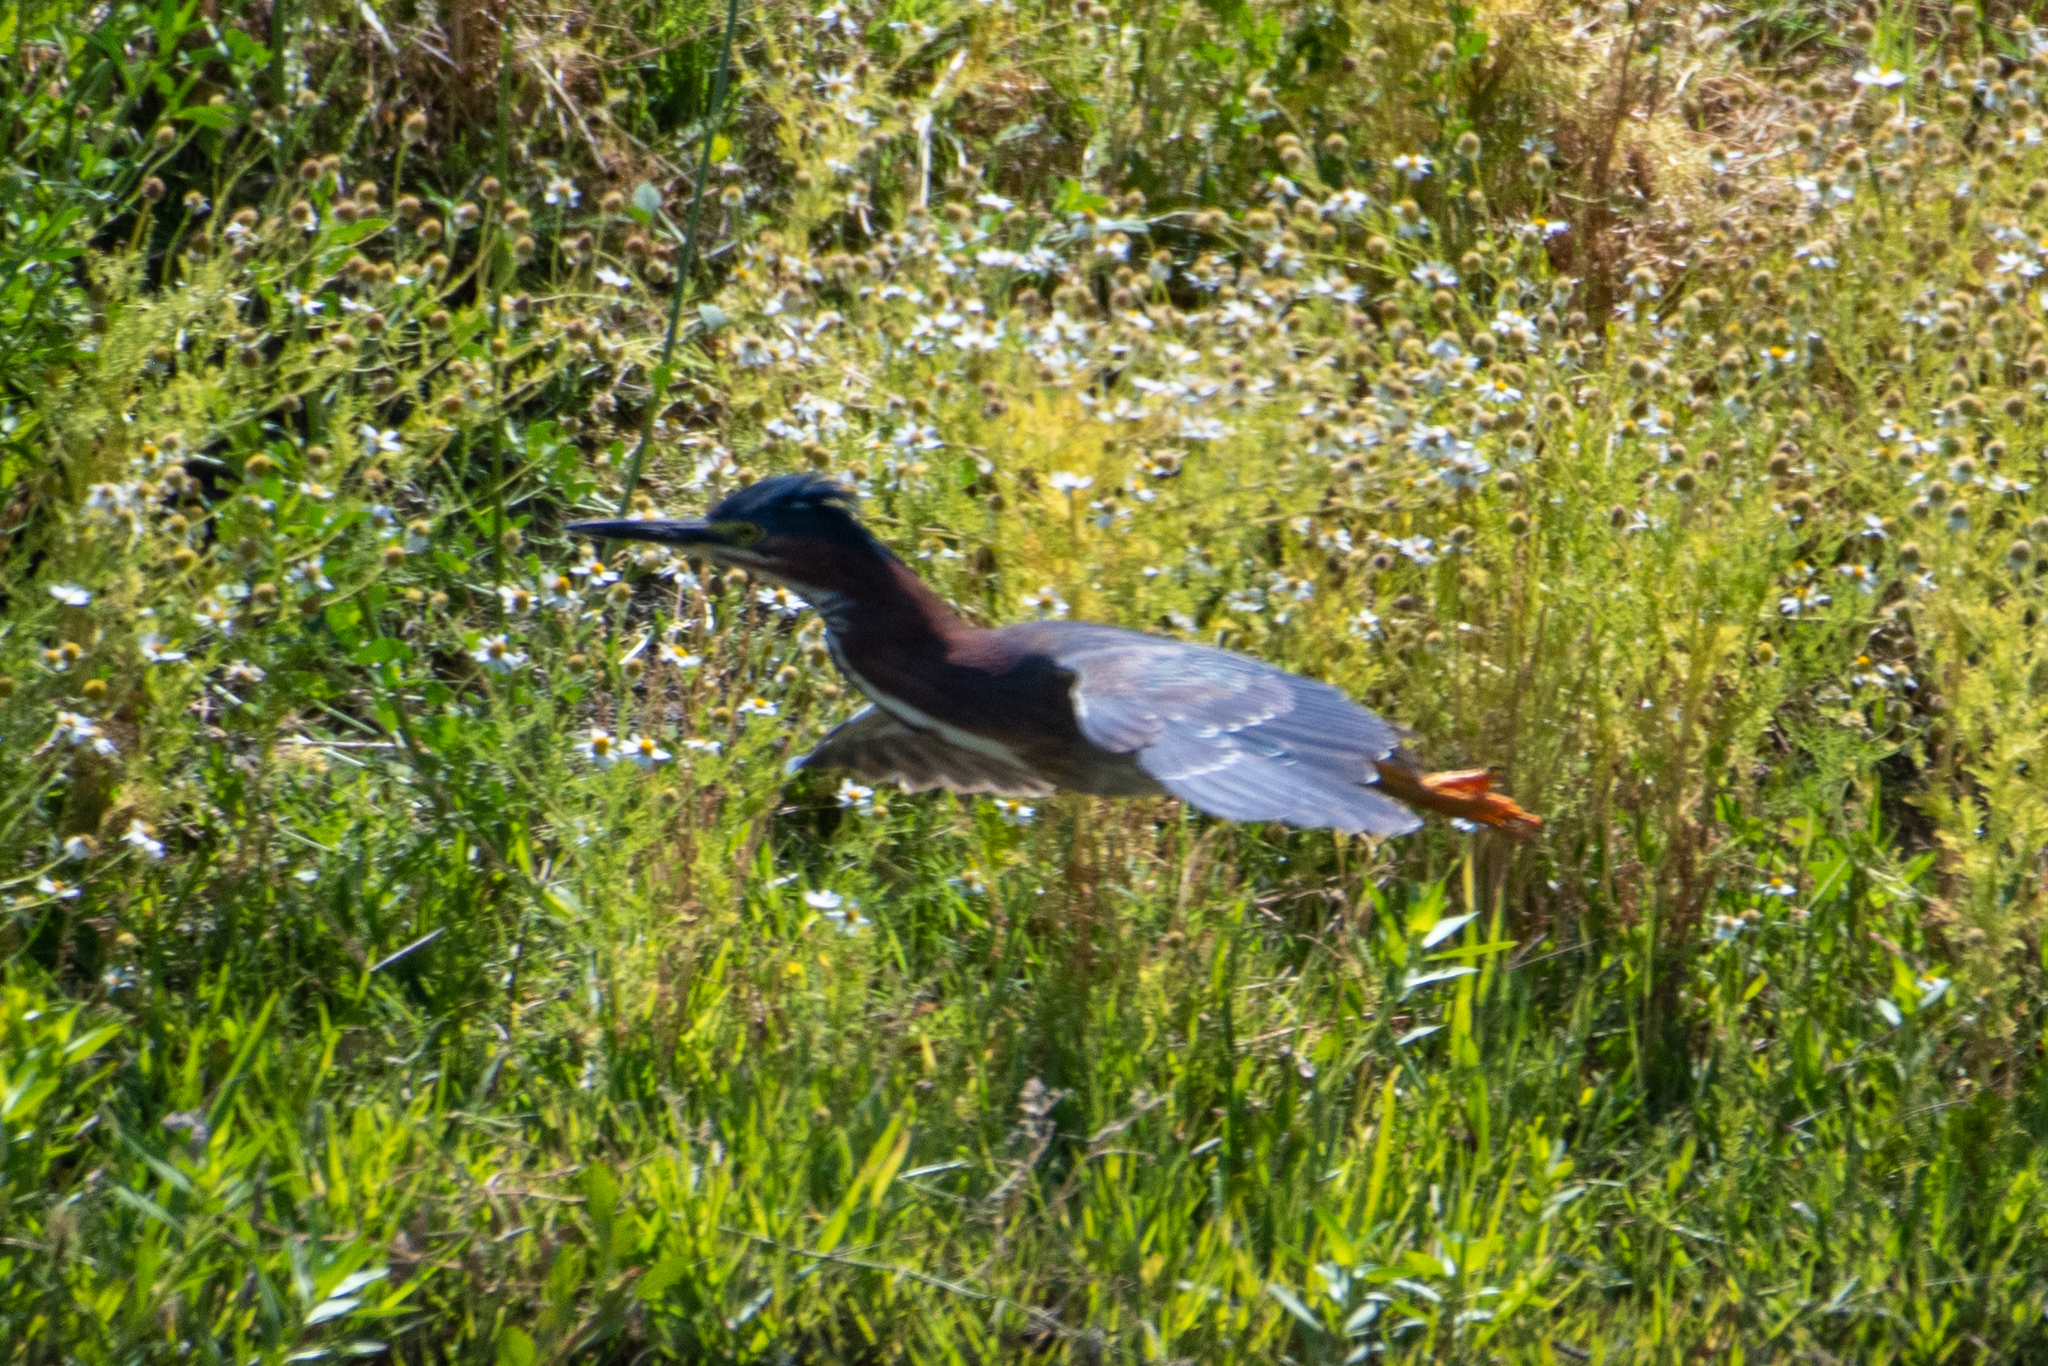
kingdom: Animalia
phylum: Chordata
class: Aves
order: Pelecaniformes
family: Ardeidae
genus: Butorides
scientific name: Butorides virescens
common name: Green heron
